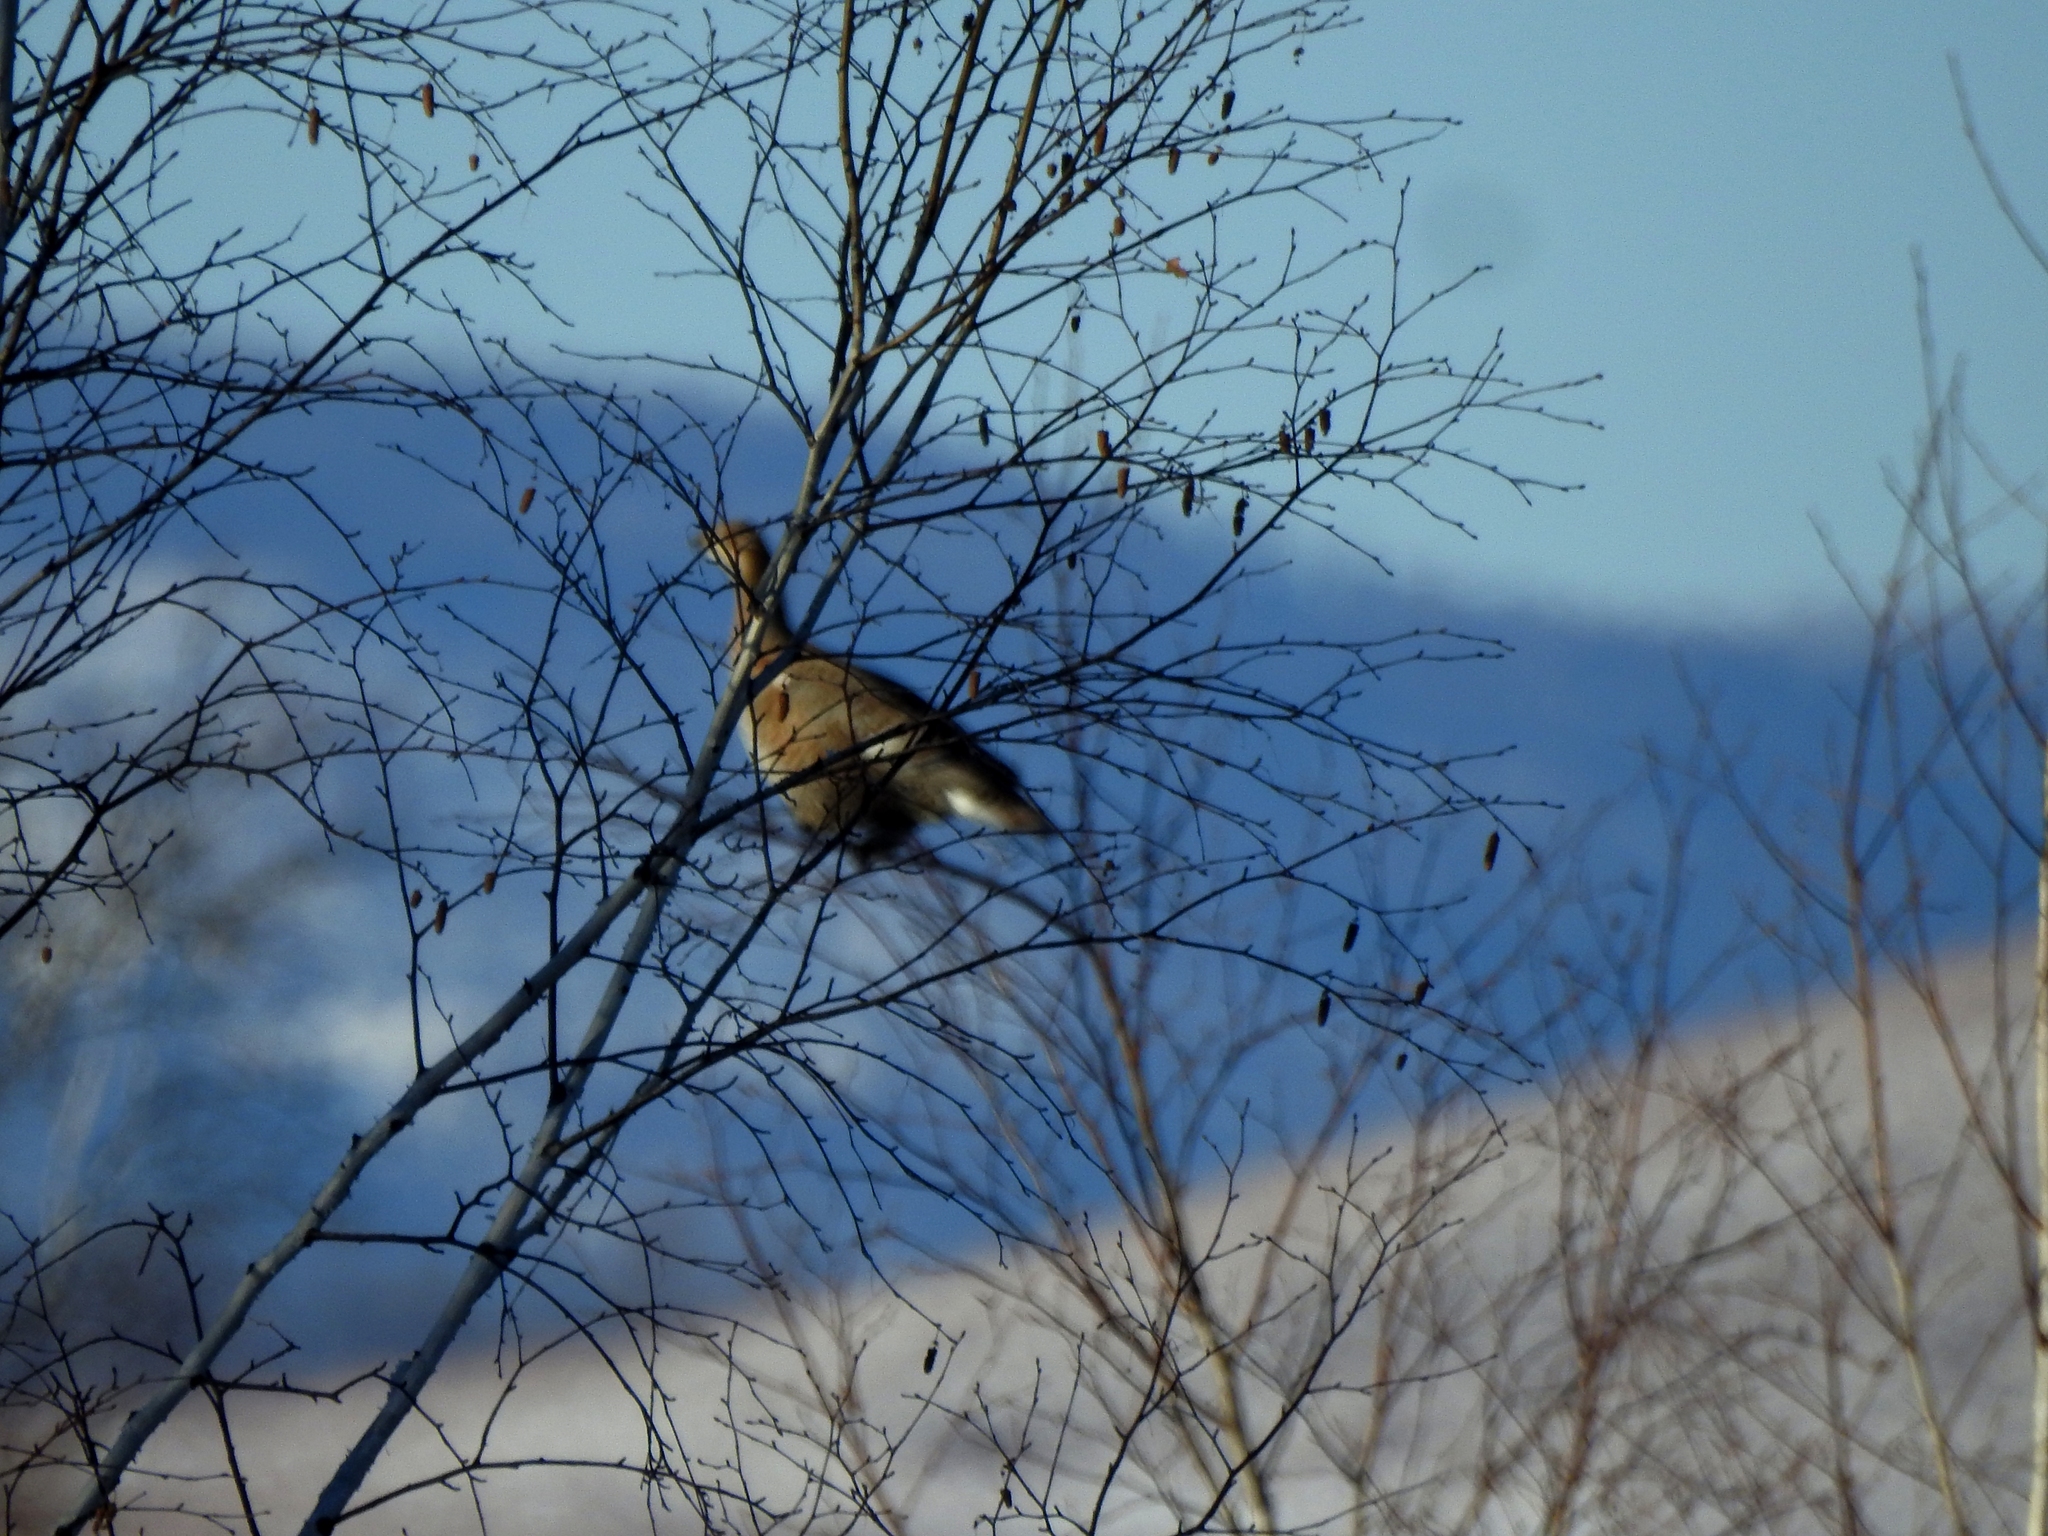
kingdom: Animalia
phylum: Chordata
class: Aves
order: Galliformes
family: Phasianidae
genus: Lyrurus
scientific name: Lyrurus tetrix
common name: Black grouse
